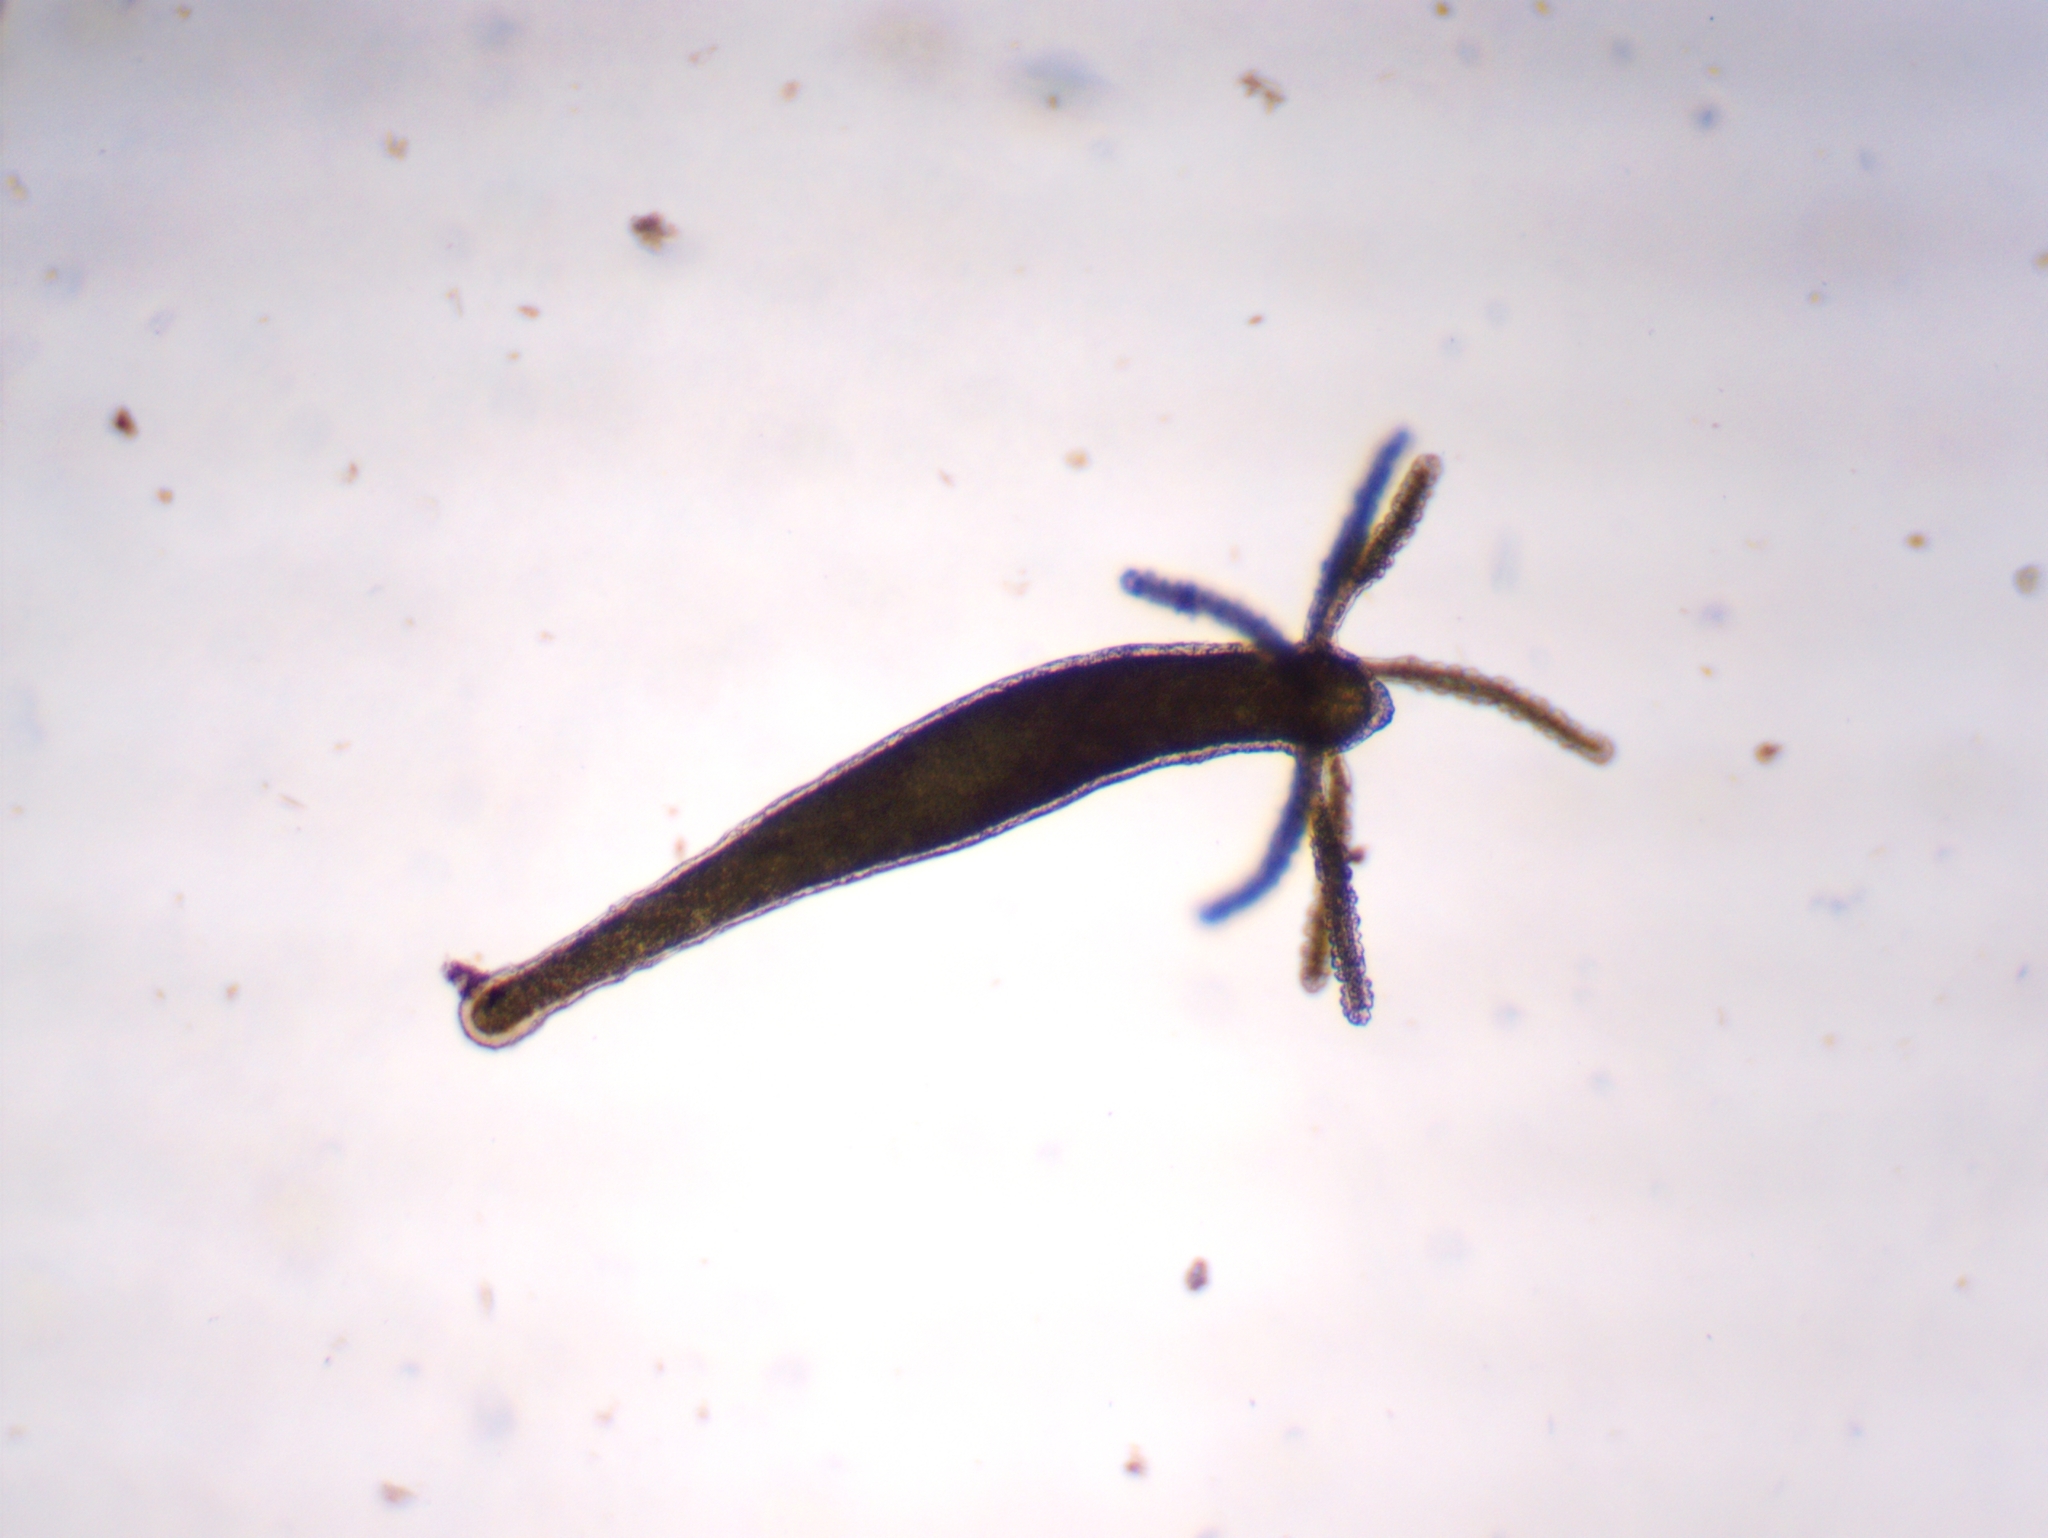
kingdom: Animalia
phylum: Cnidaria
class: Hydrozoa
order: Anthoathecata
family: Hydridae
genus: Hydra
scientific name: Hydra viridissima
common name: Green hydra
